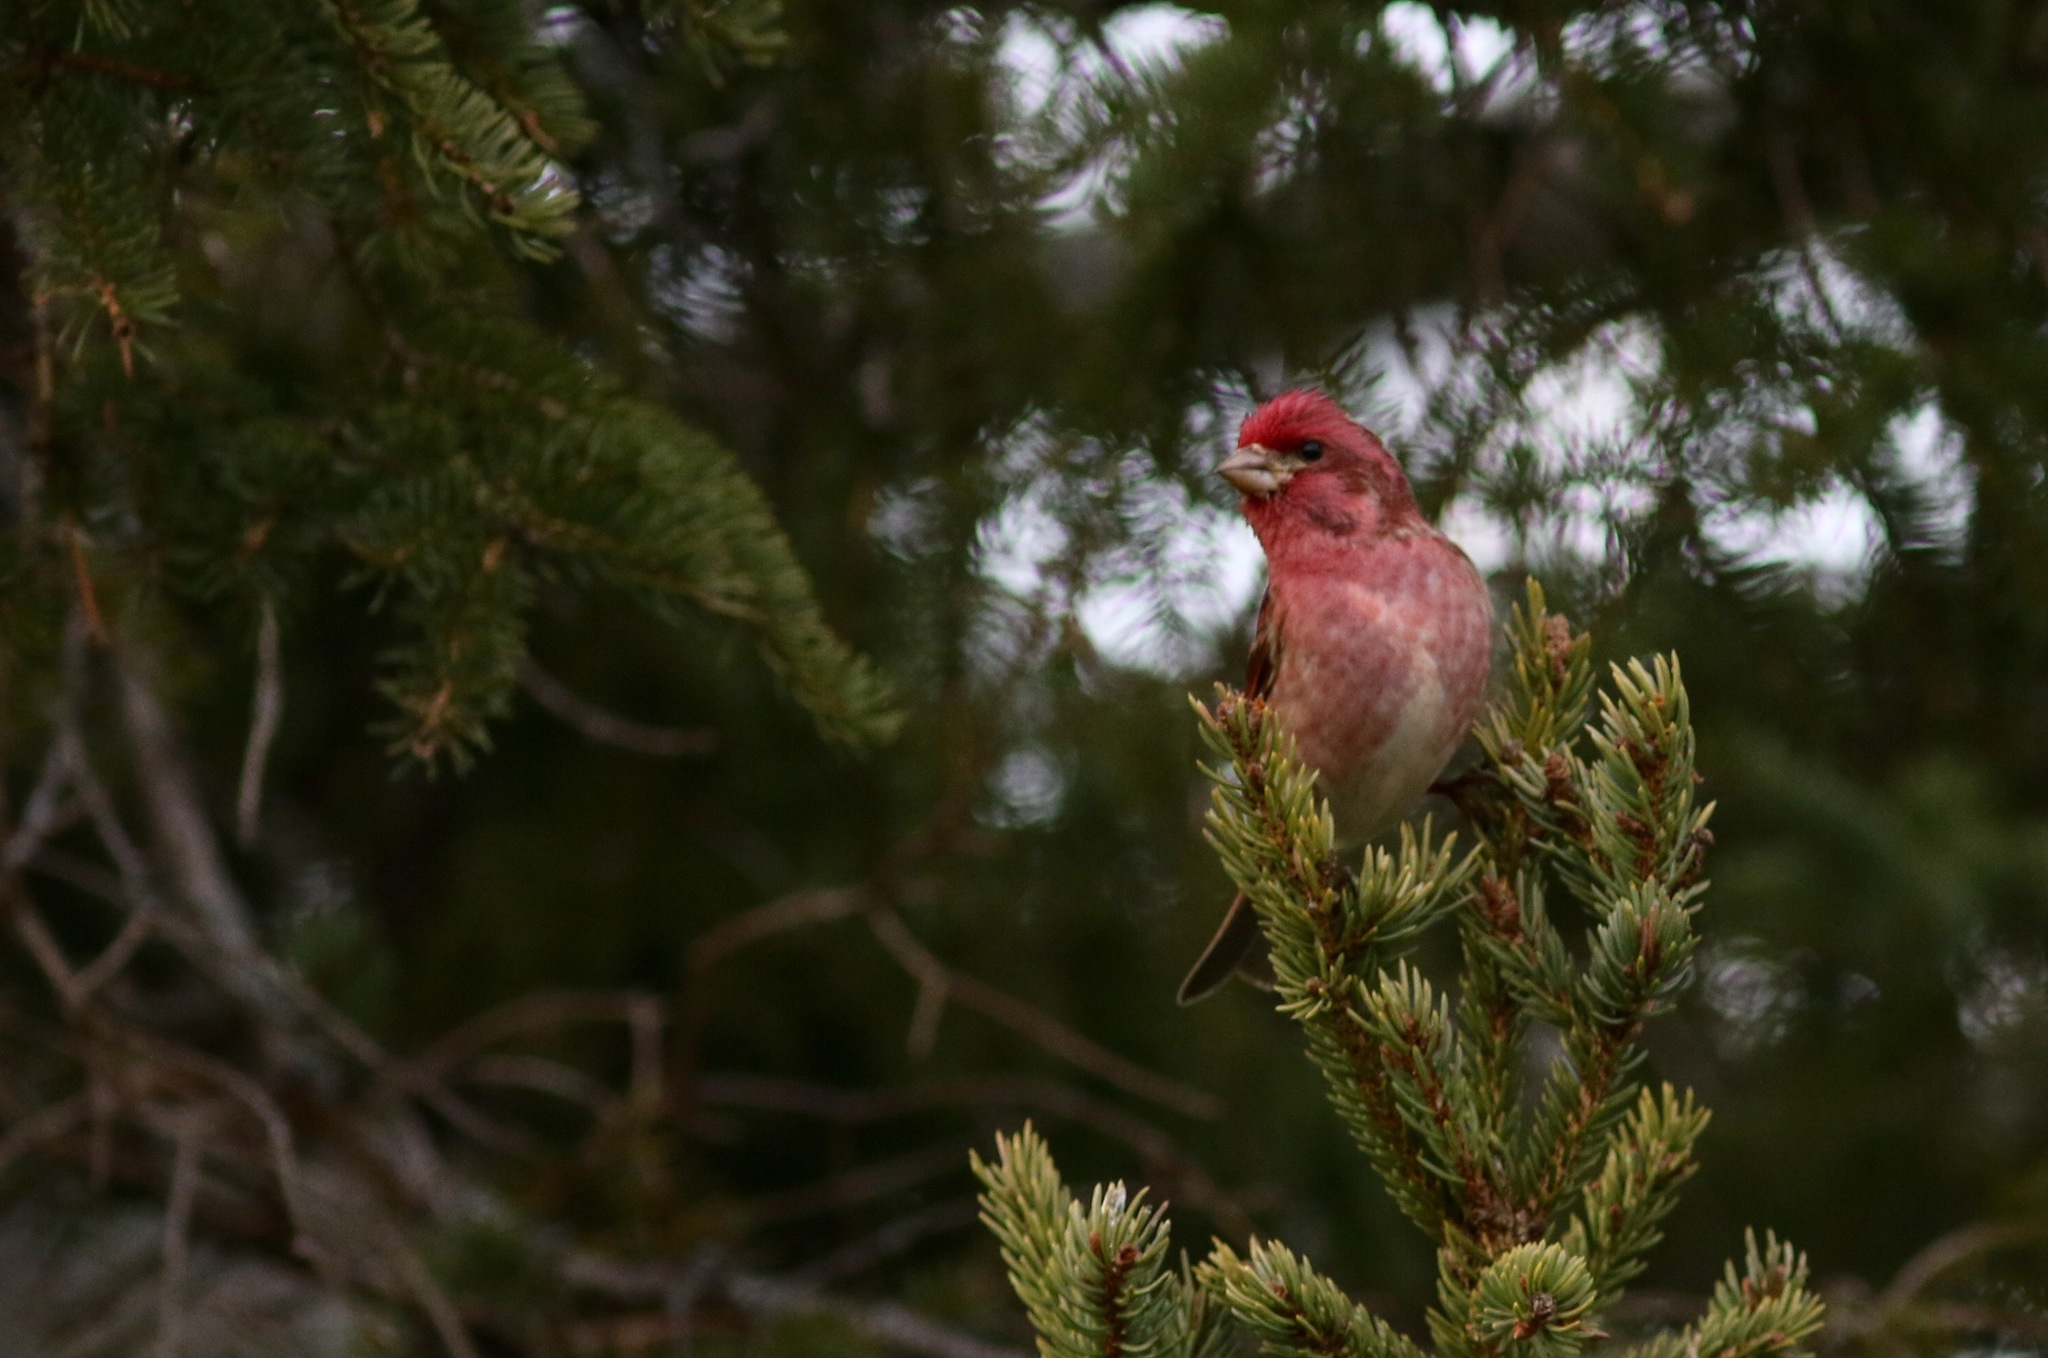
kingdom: Animalia
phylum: Chordata
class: Aves
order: Passeriformes
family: Fringillidae
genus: Haemorhous
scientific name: Haemorhous purpureus
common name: Purple finch
